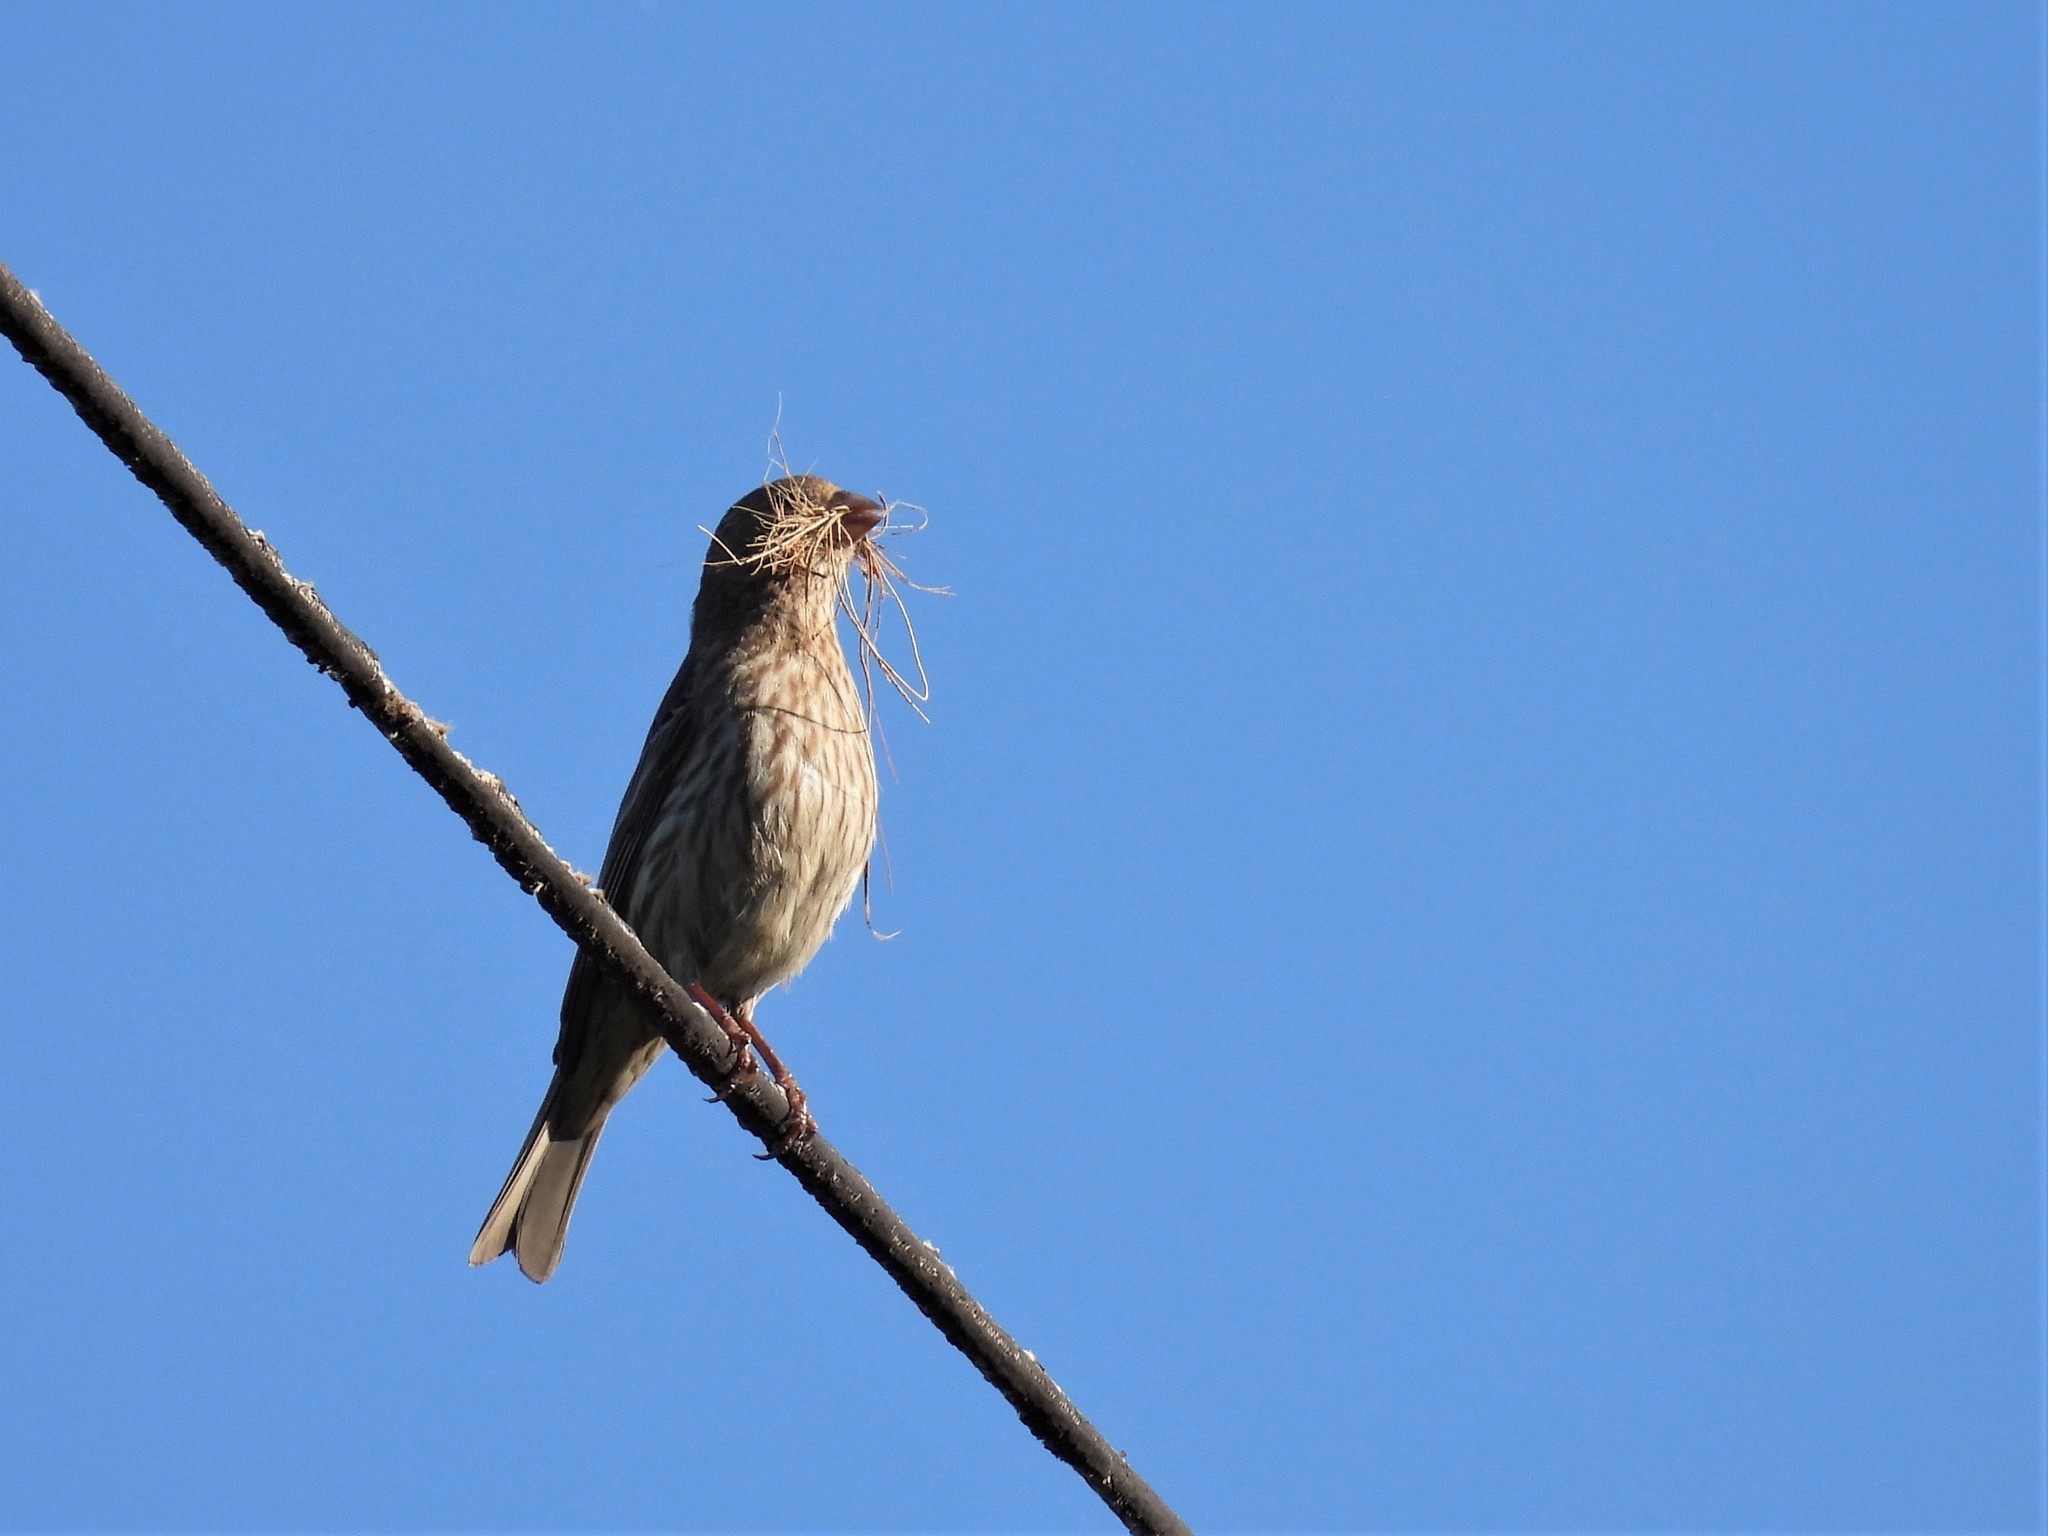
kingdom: Animalia
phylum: Chordata
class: Aves
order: Passeriformes
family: Fringillidae
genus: Haemorhous
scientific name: Haemorhous mexicanus
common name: House finch
